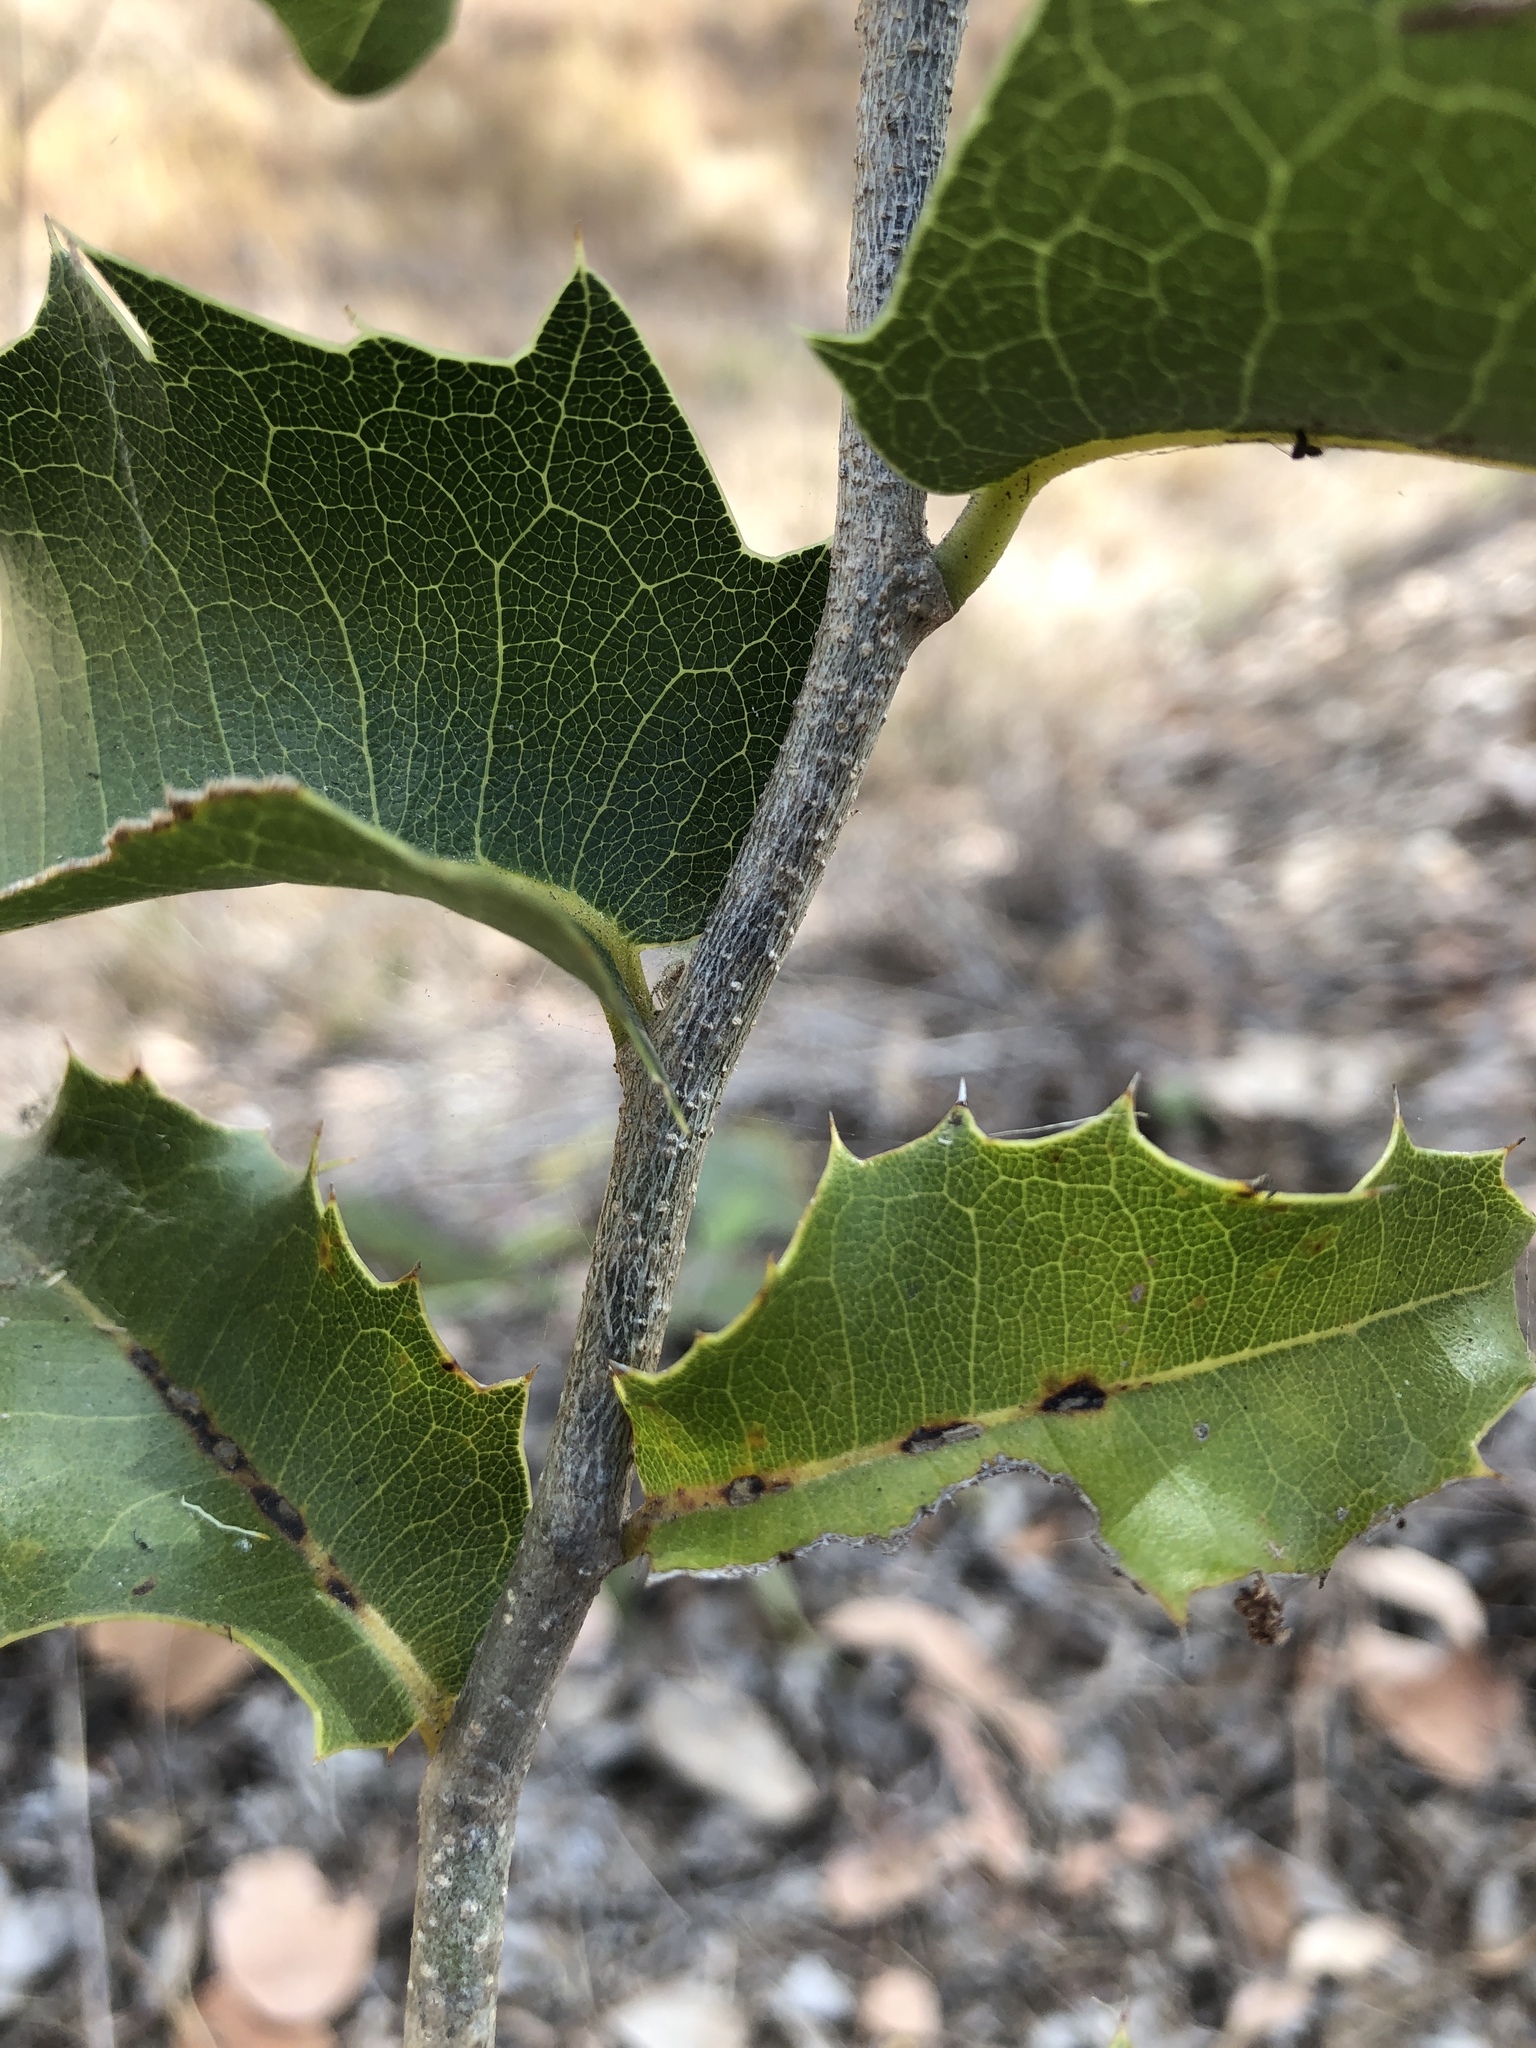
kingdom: Plantae
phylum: Tracheophyta
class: Magnoliopsida
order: Malpighiales
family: Putranjivaceae
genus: Drypetes
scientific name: Drypetes deplanchei
